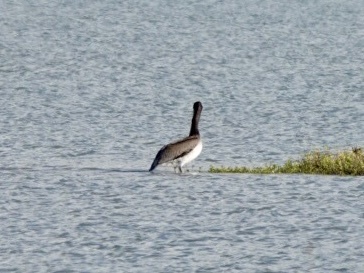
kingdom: Animalia
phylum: Chordata
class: Aves
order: Pelecaniformes
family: Pelecanidae
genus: Pelecanus
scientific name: Pelecanus occidentalis
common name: Brown pelican
